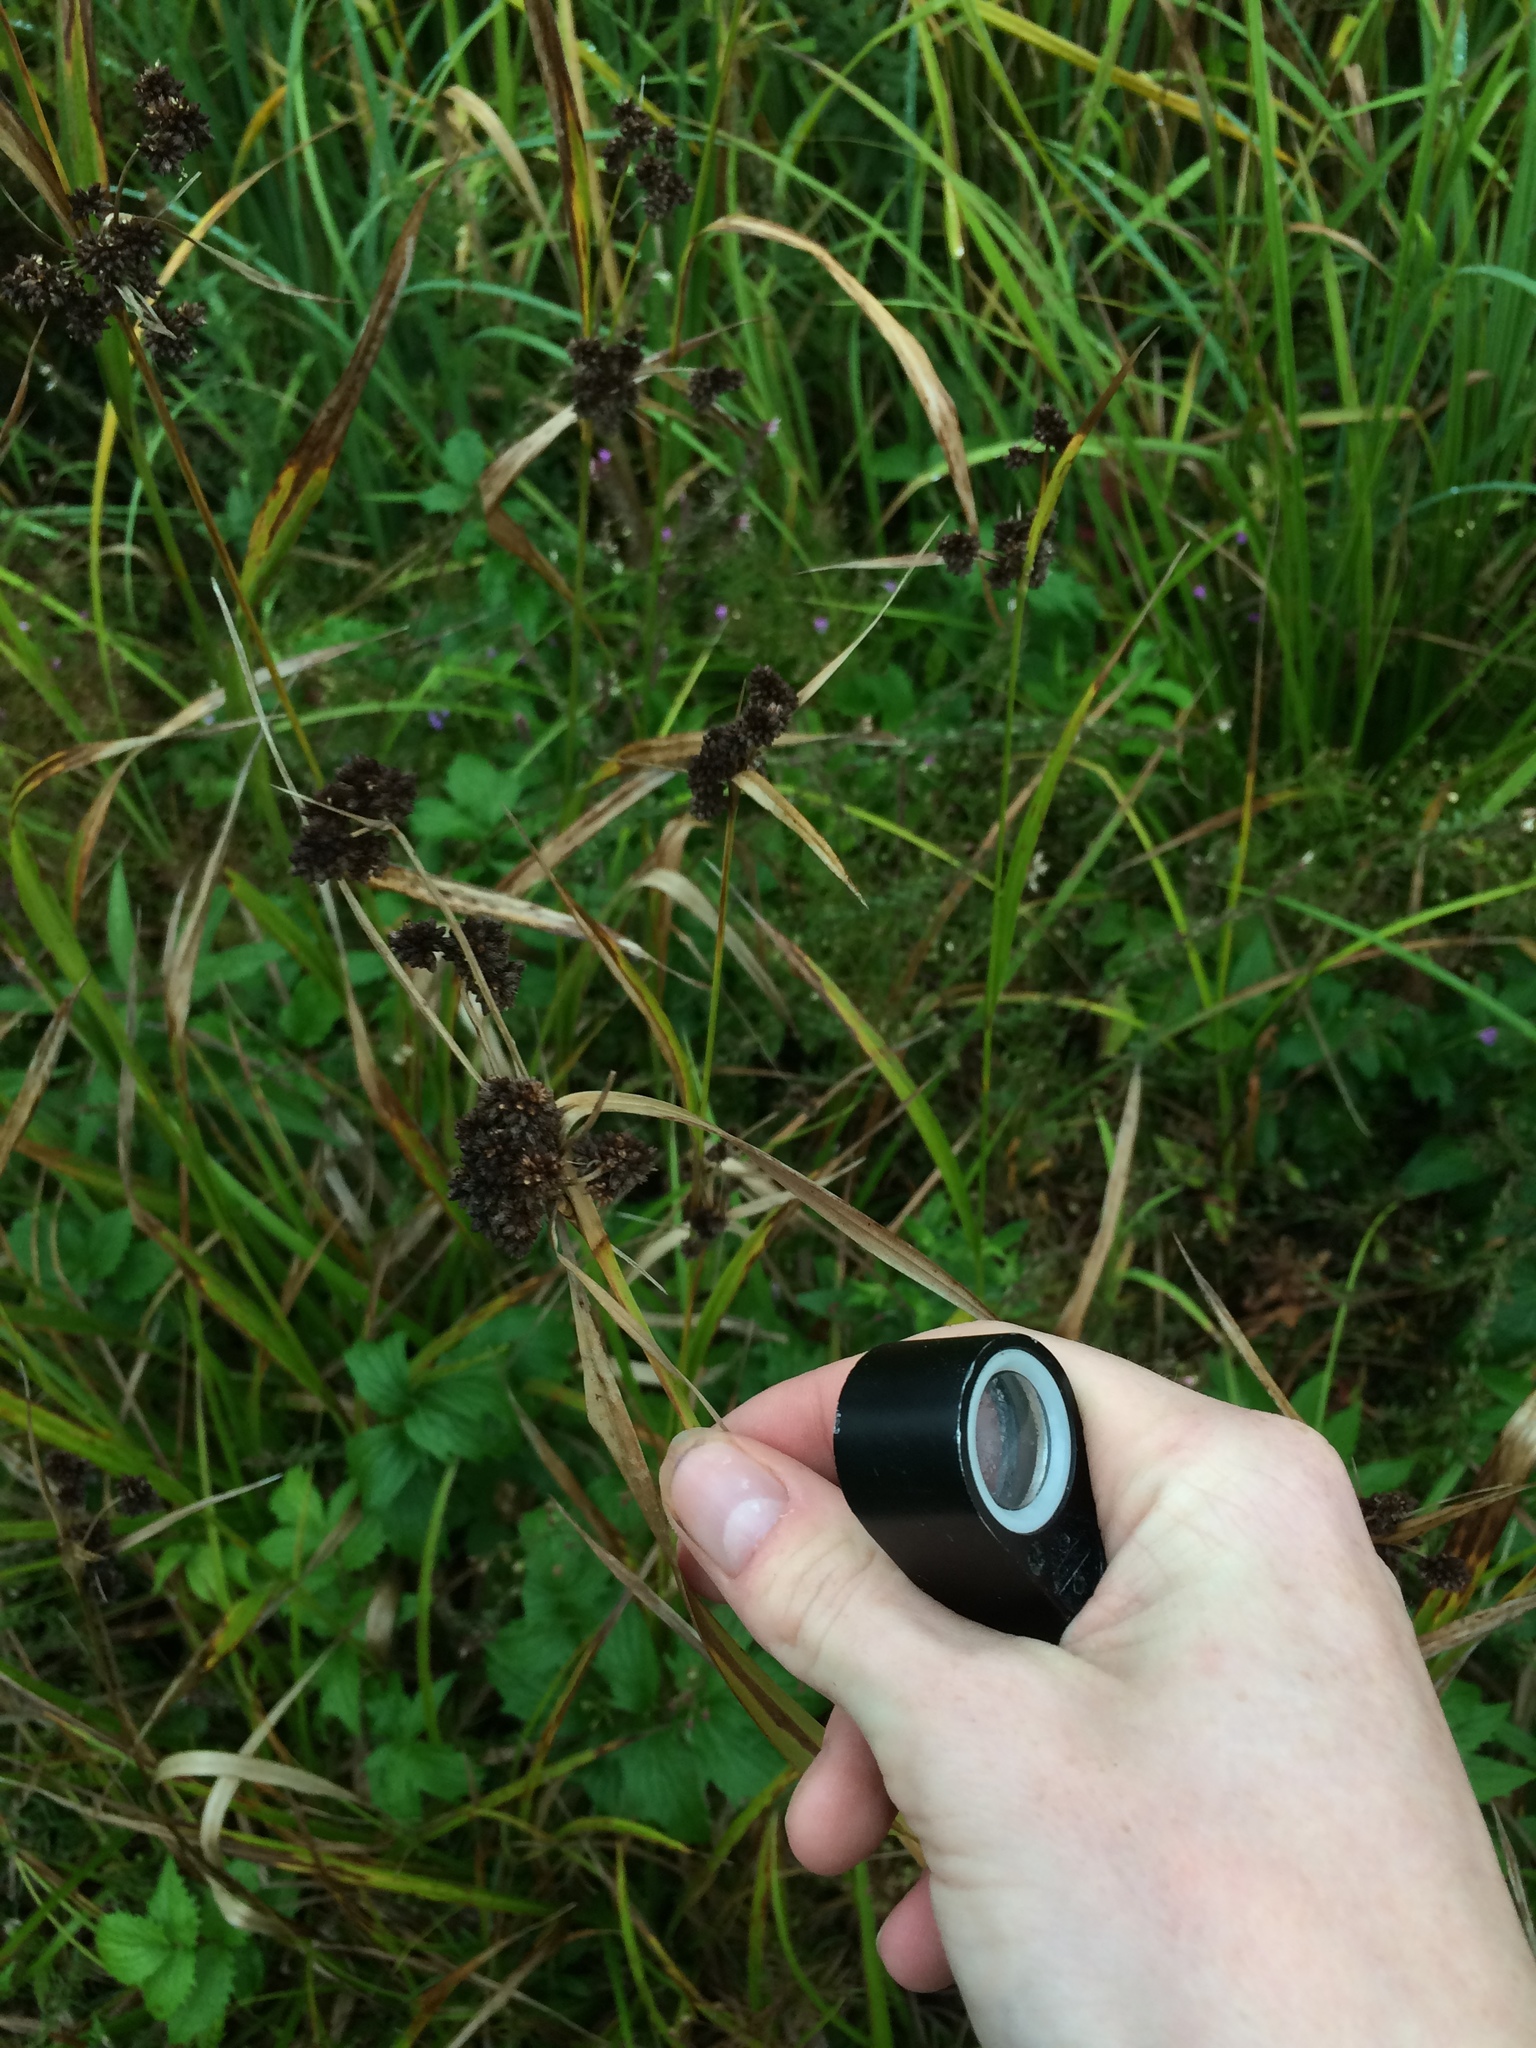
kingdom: Plantae
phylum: Tracheophyta
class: Liliopsida
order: Poales
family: Cyperaceae
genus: Scirpus
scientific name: Scirpus atrovirens
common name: Black bulrush
